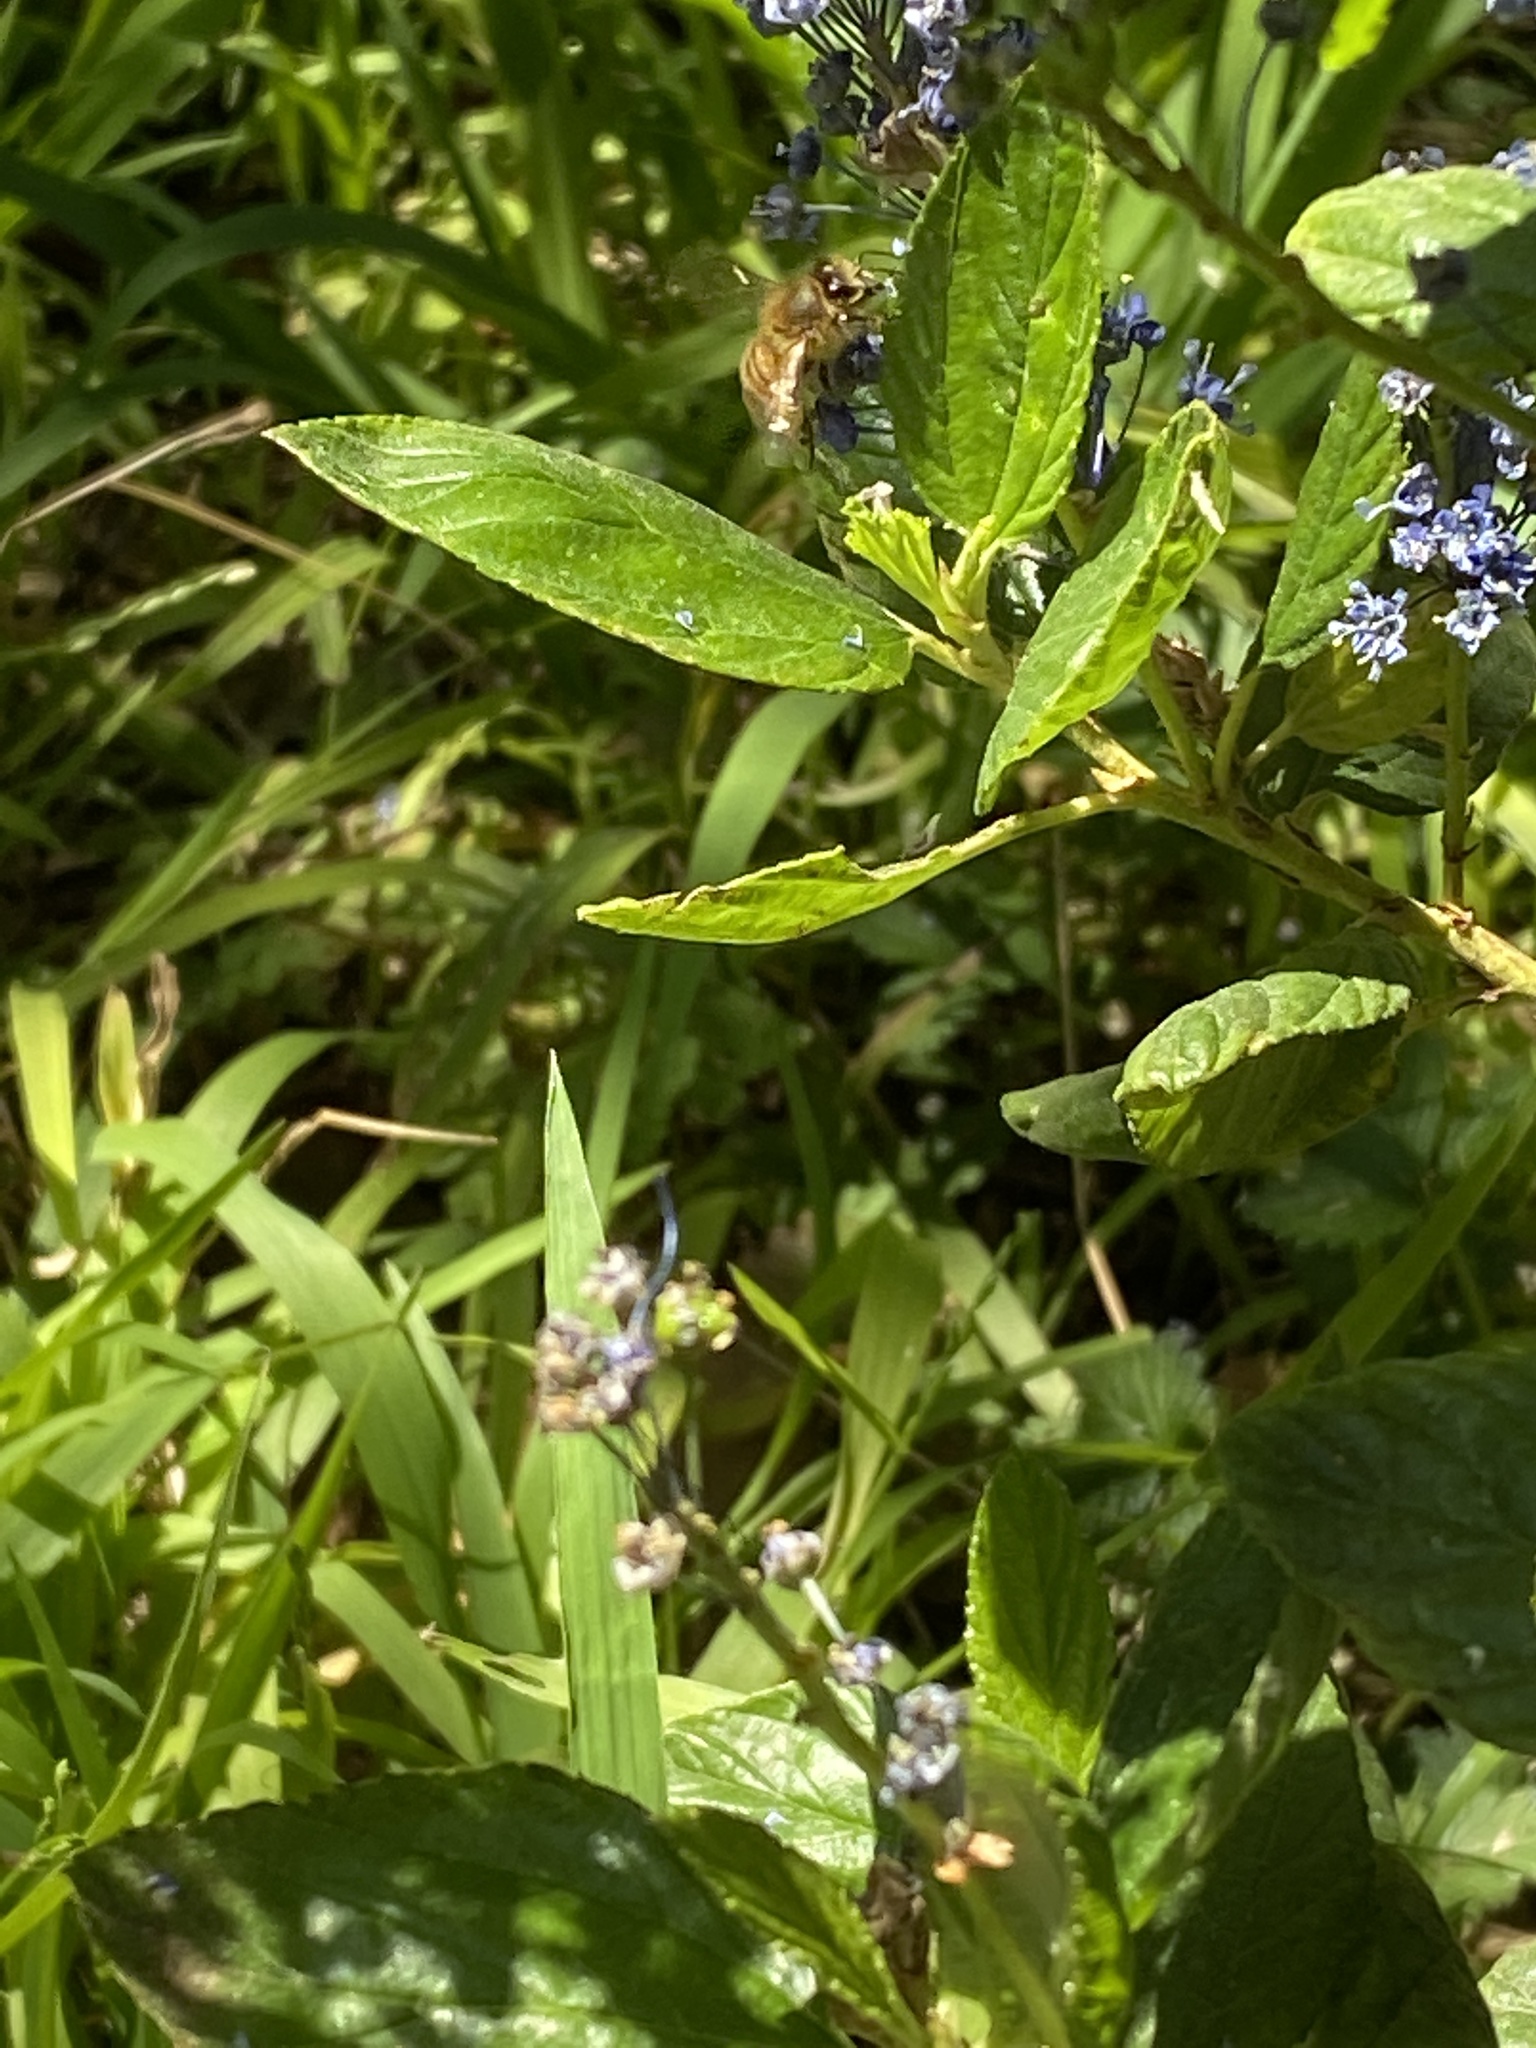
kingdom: Animalia
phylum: Arthropoda
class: Insecta
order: Hymenoptera
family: Apidae
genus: Apis
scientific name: Apis mellifera
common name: Honey bee
